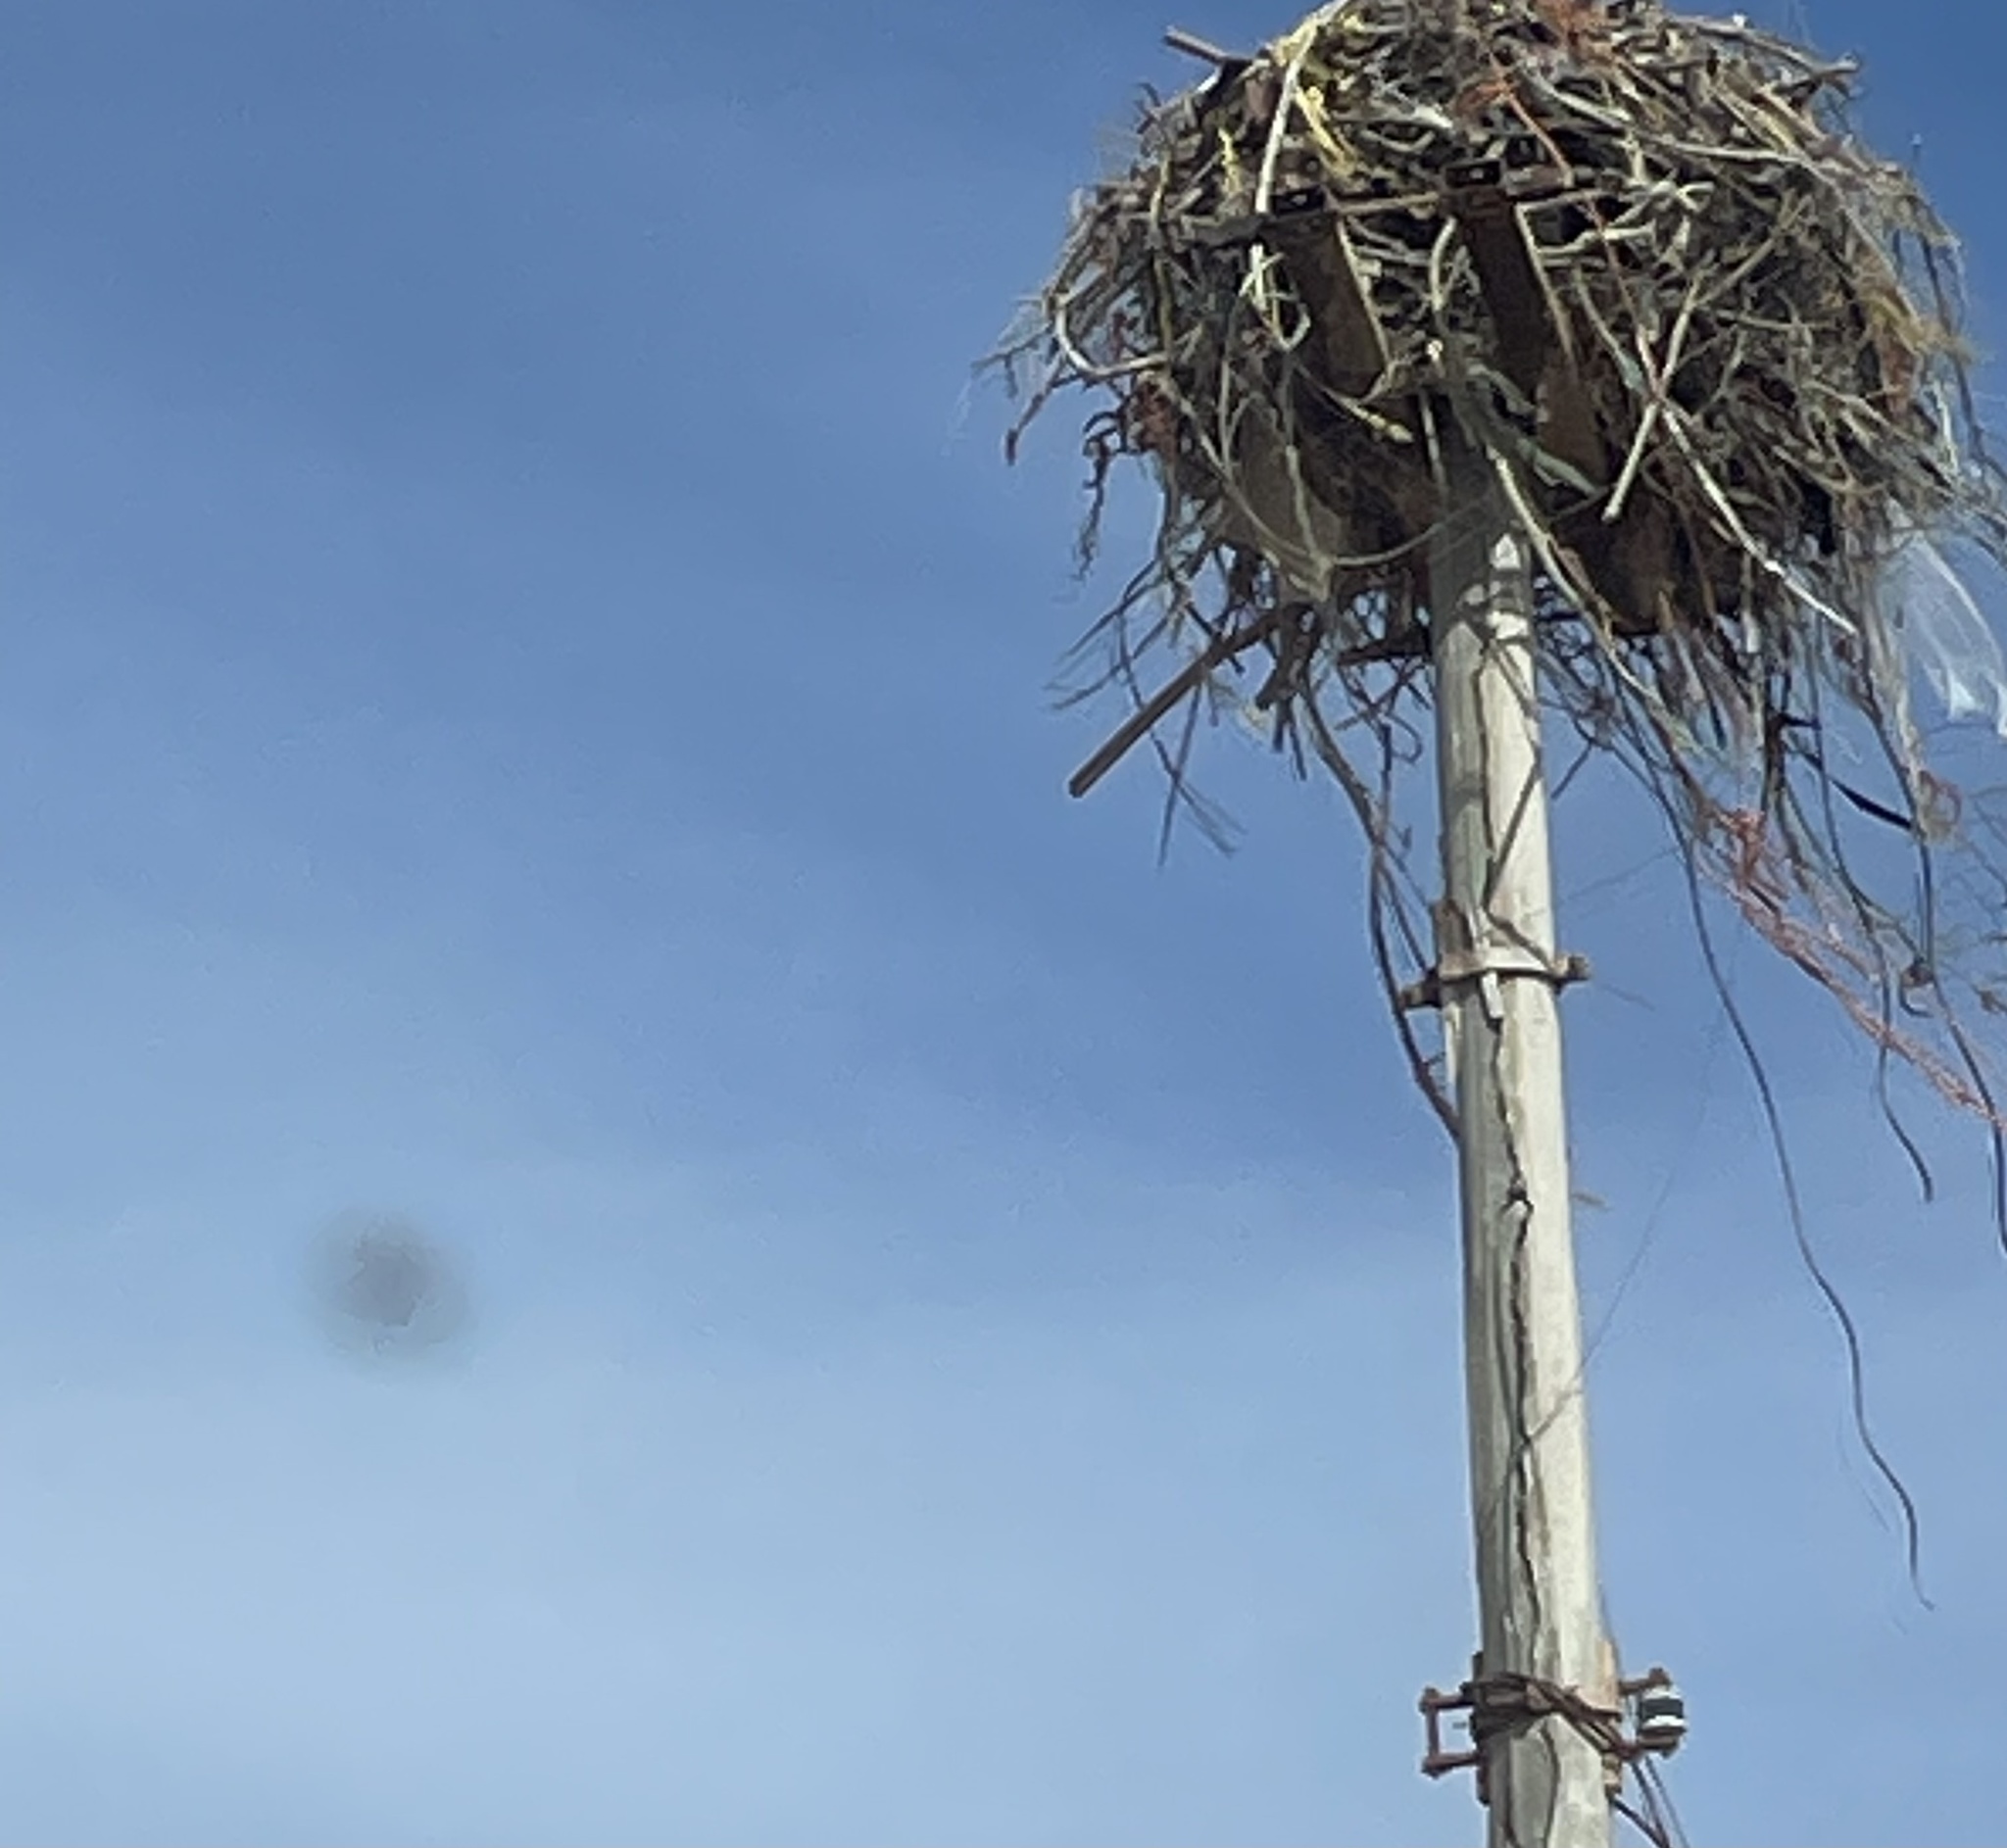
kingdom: Animalia
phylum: Chordata
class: Aves
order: Accipitriformes
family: Pandionidae
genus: Pandion
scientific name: Pandion haliaetus
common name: Osprey
